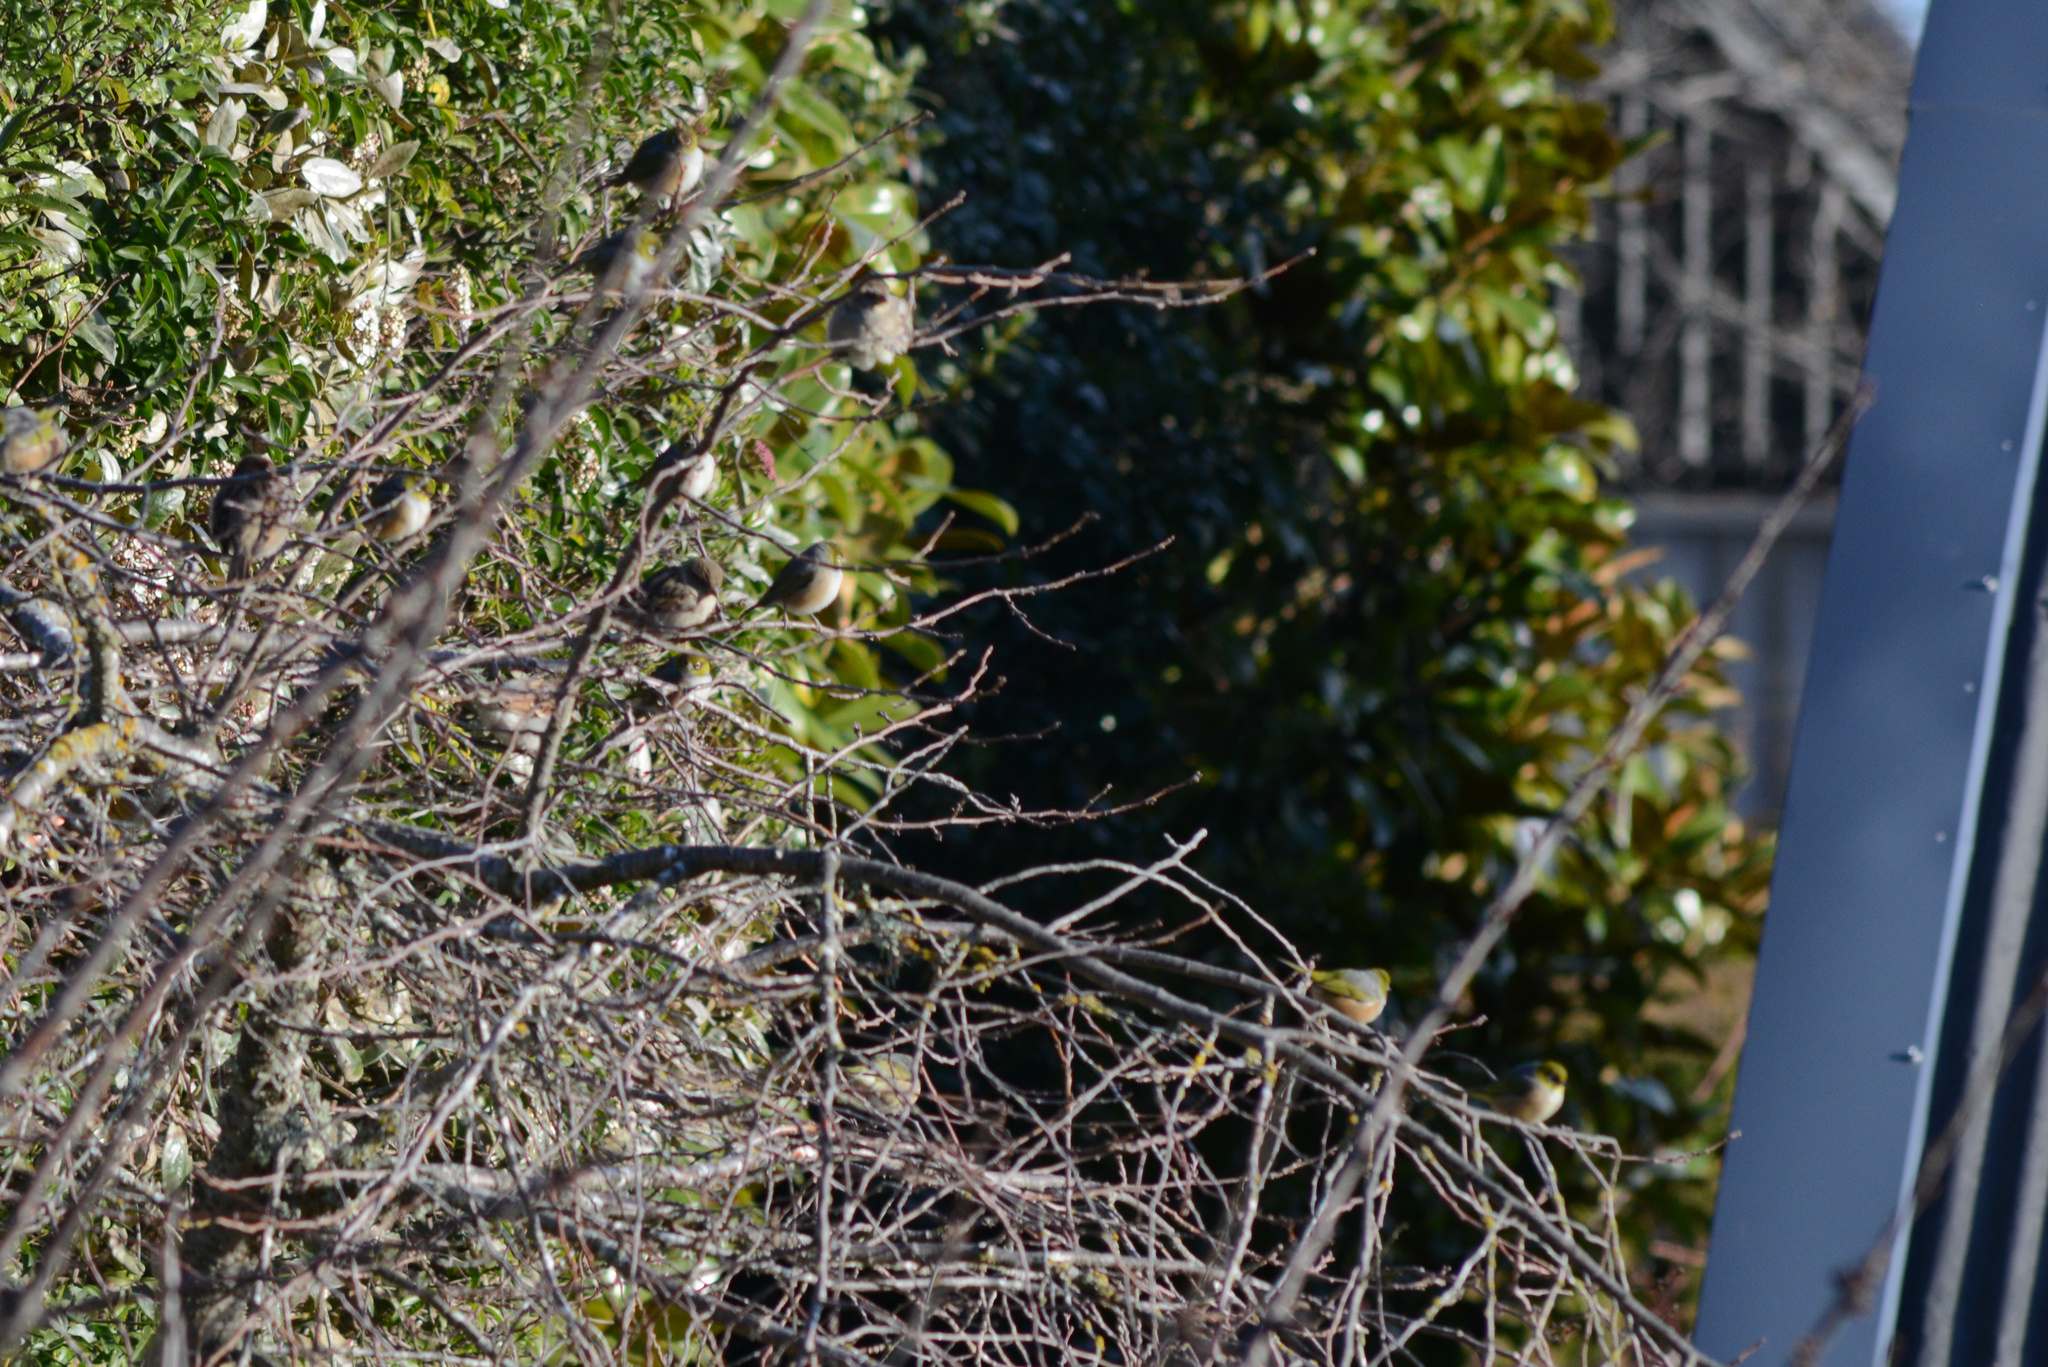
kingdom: Animalia
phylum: Chordata
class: Aves
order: Passeriformes
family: Zosteropidae
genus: Zosterops
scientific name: Zosterops lateralis
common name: Silvereye
